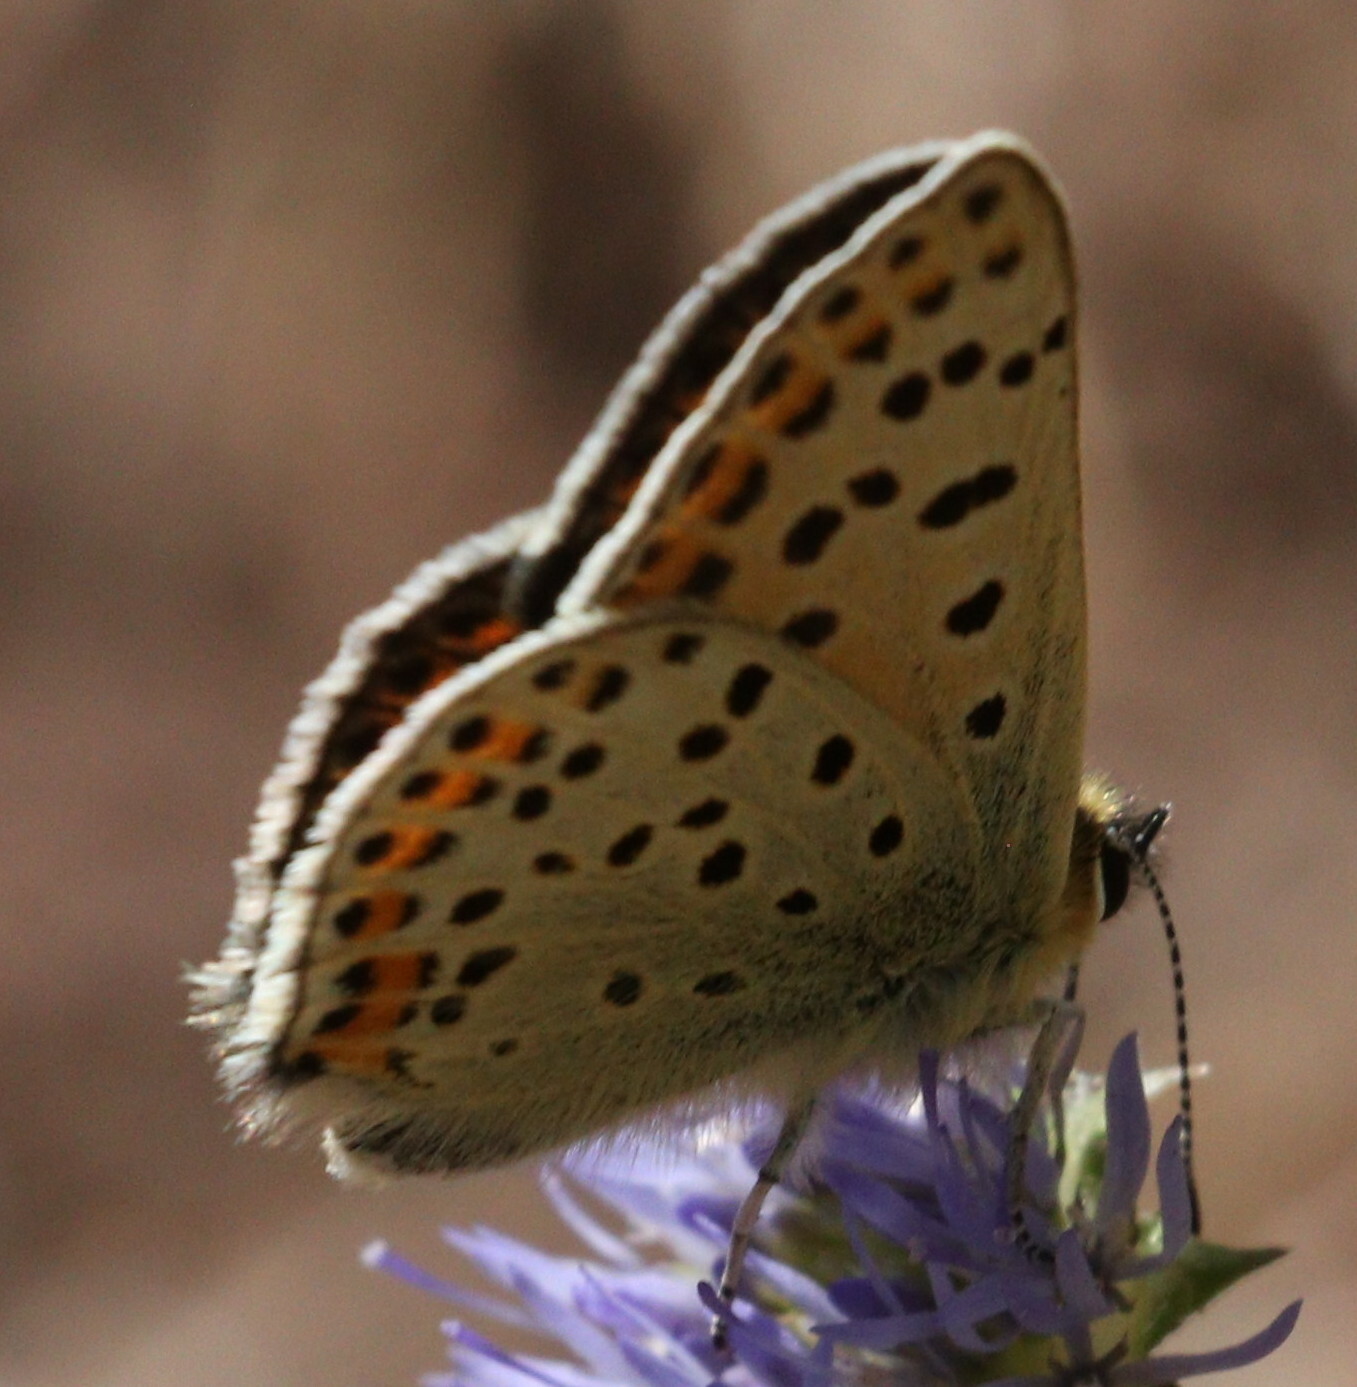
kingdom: Animalia
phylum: Arthropoda
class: Insecta
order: Lepidoptera
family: Lycaenidae
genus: Loweia
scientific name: Loweia tityrus
